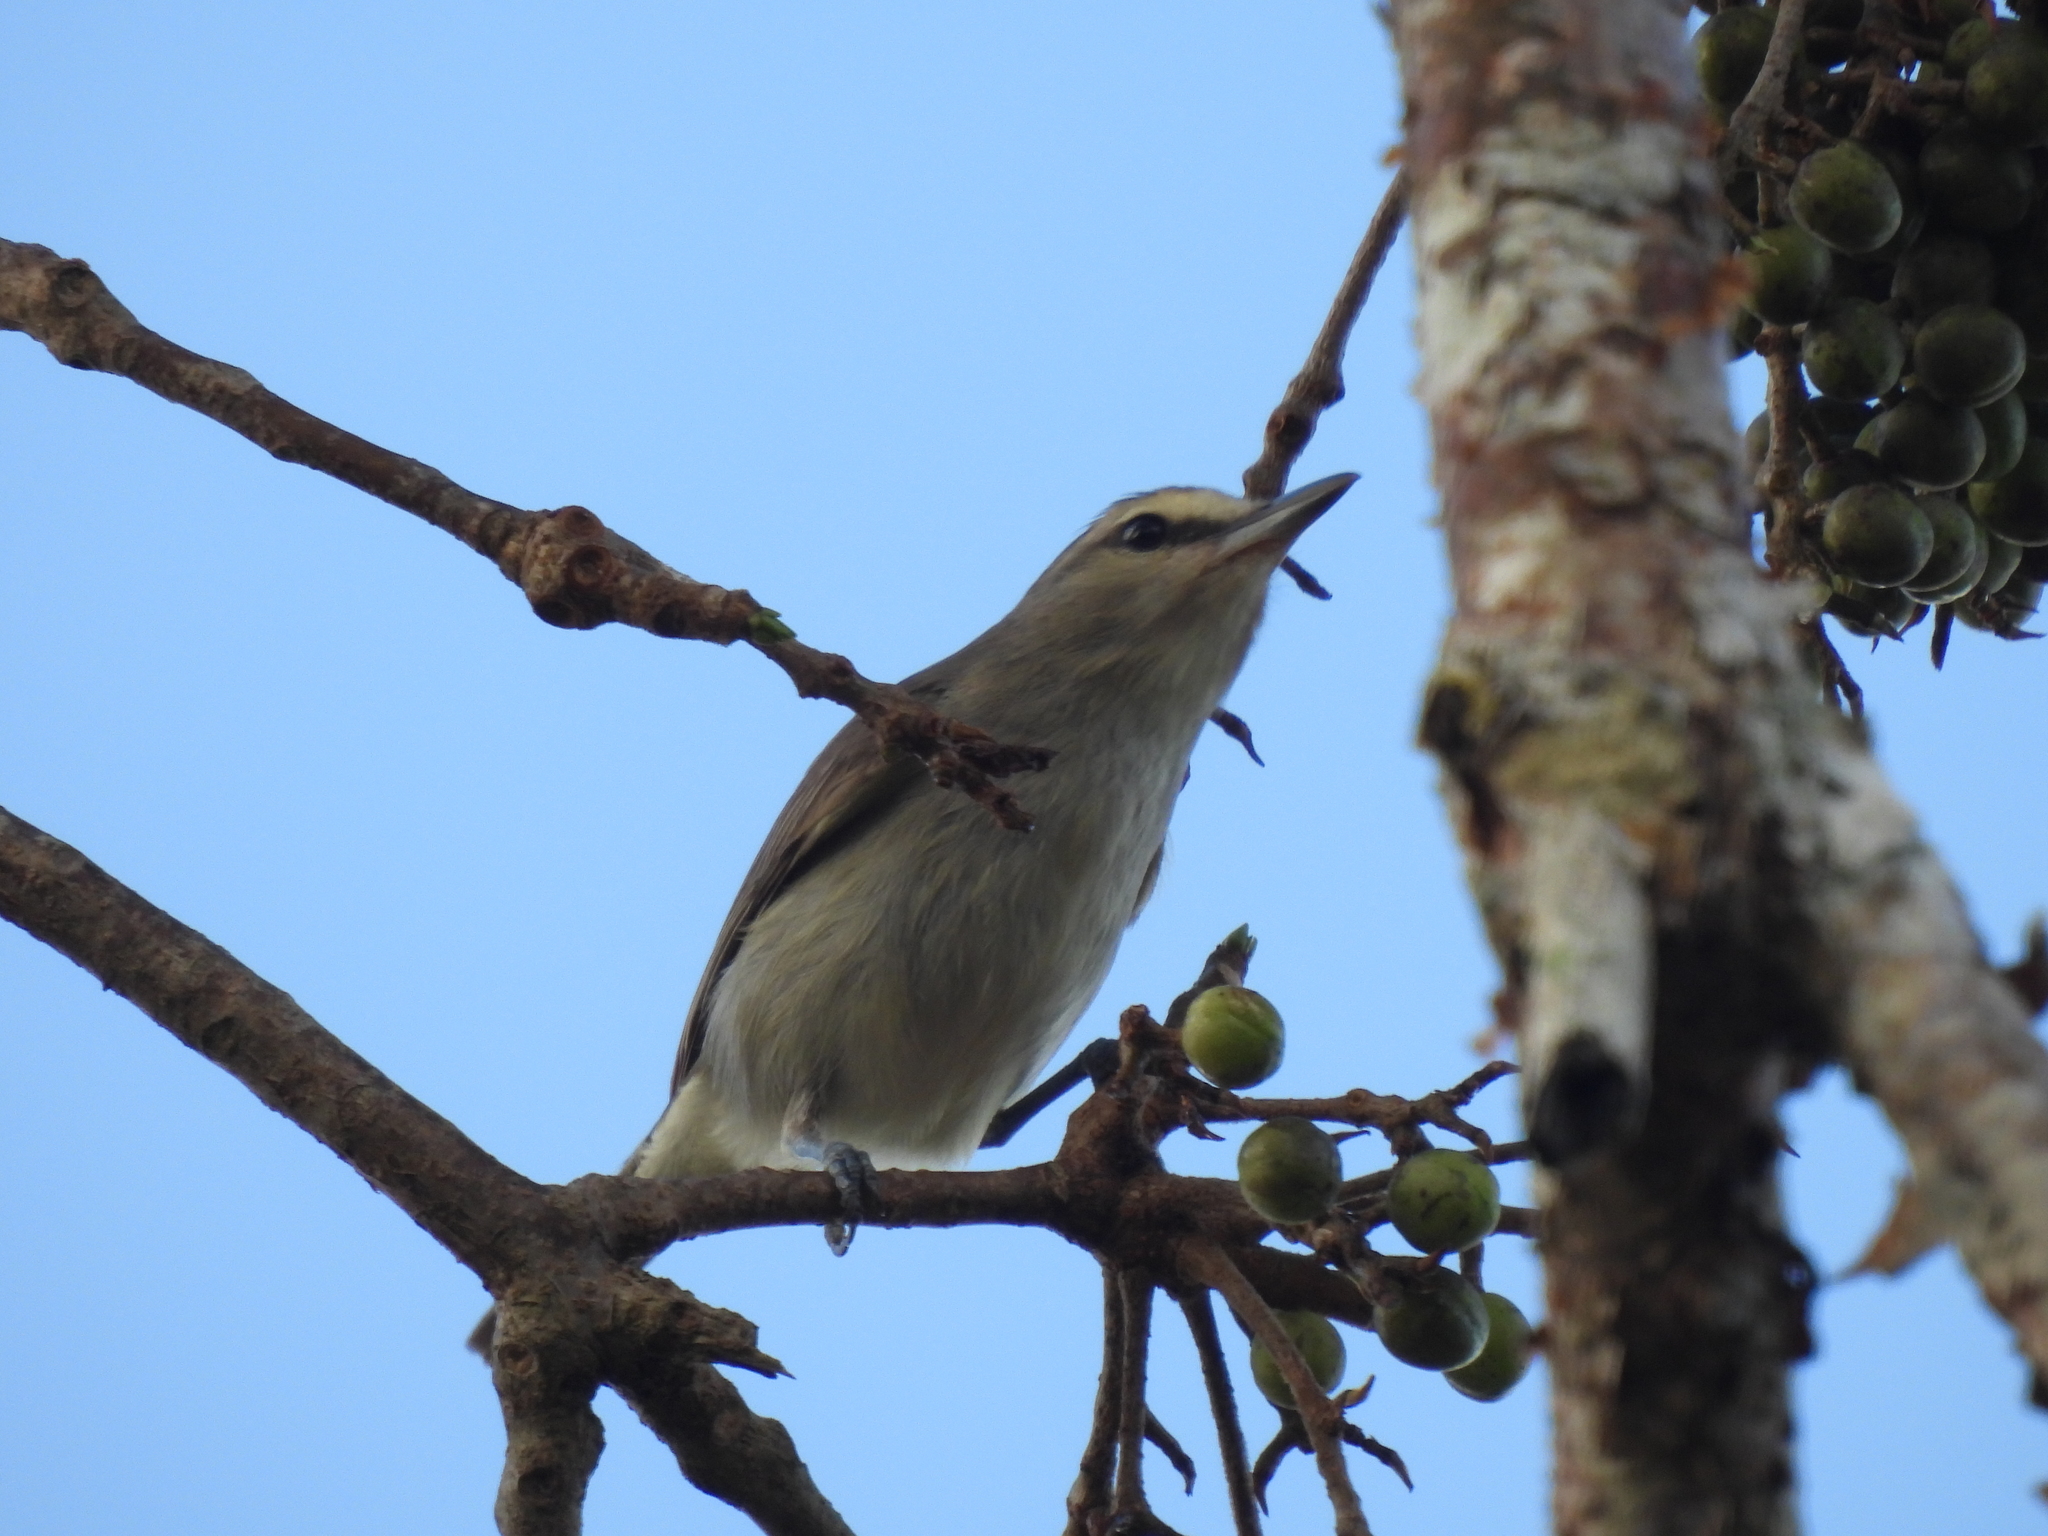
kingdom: Animalia
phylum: Chordata
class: Aves
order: Passeriformes
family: Vireonidae
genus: Vireo
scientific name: Vireo magister
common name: Yucatan vireo
